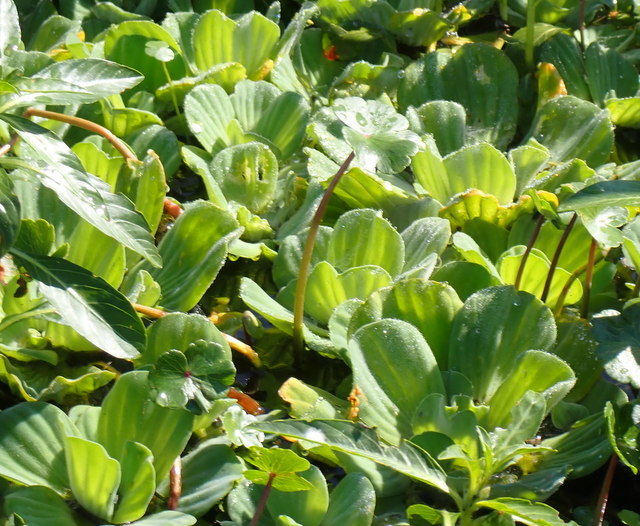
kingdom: Plantae
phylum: Tracheophyta
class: Liliopsida
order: Alismatales
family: Araceae
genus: Pistia
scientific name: Pistia stratiotes
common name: Water lettuce
